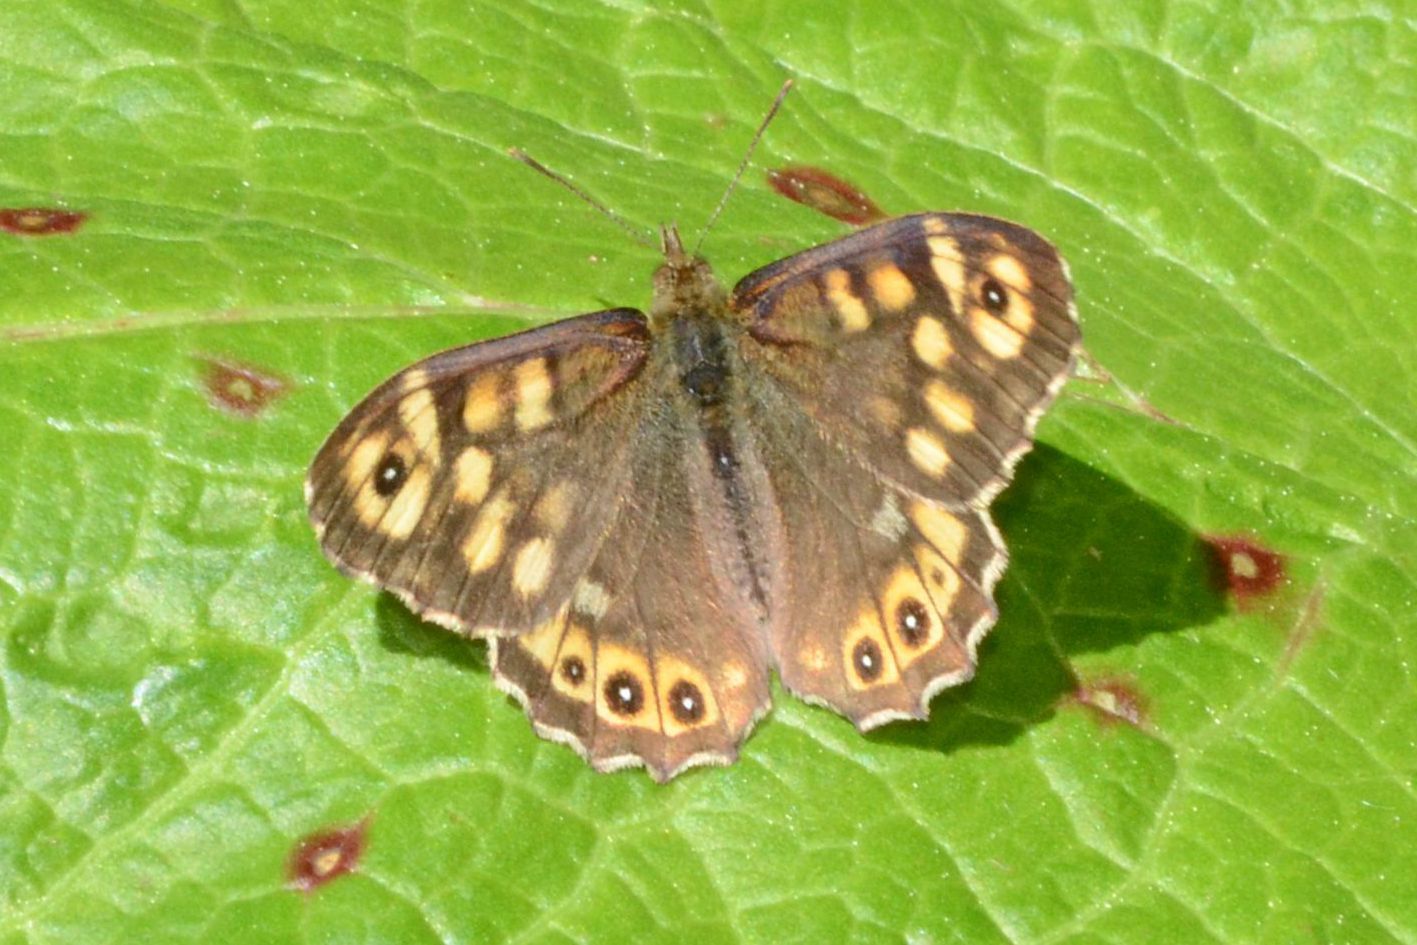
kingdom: Animalia
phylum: Arthropoda
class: Insecta
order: Lepidoptera
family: Nymphalidae
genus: Pararge
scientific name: Pararge aegeria
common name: Speckled wood
